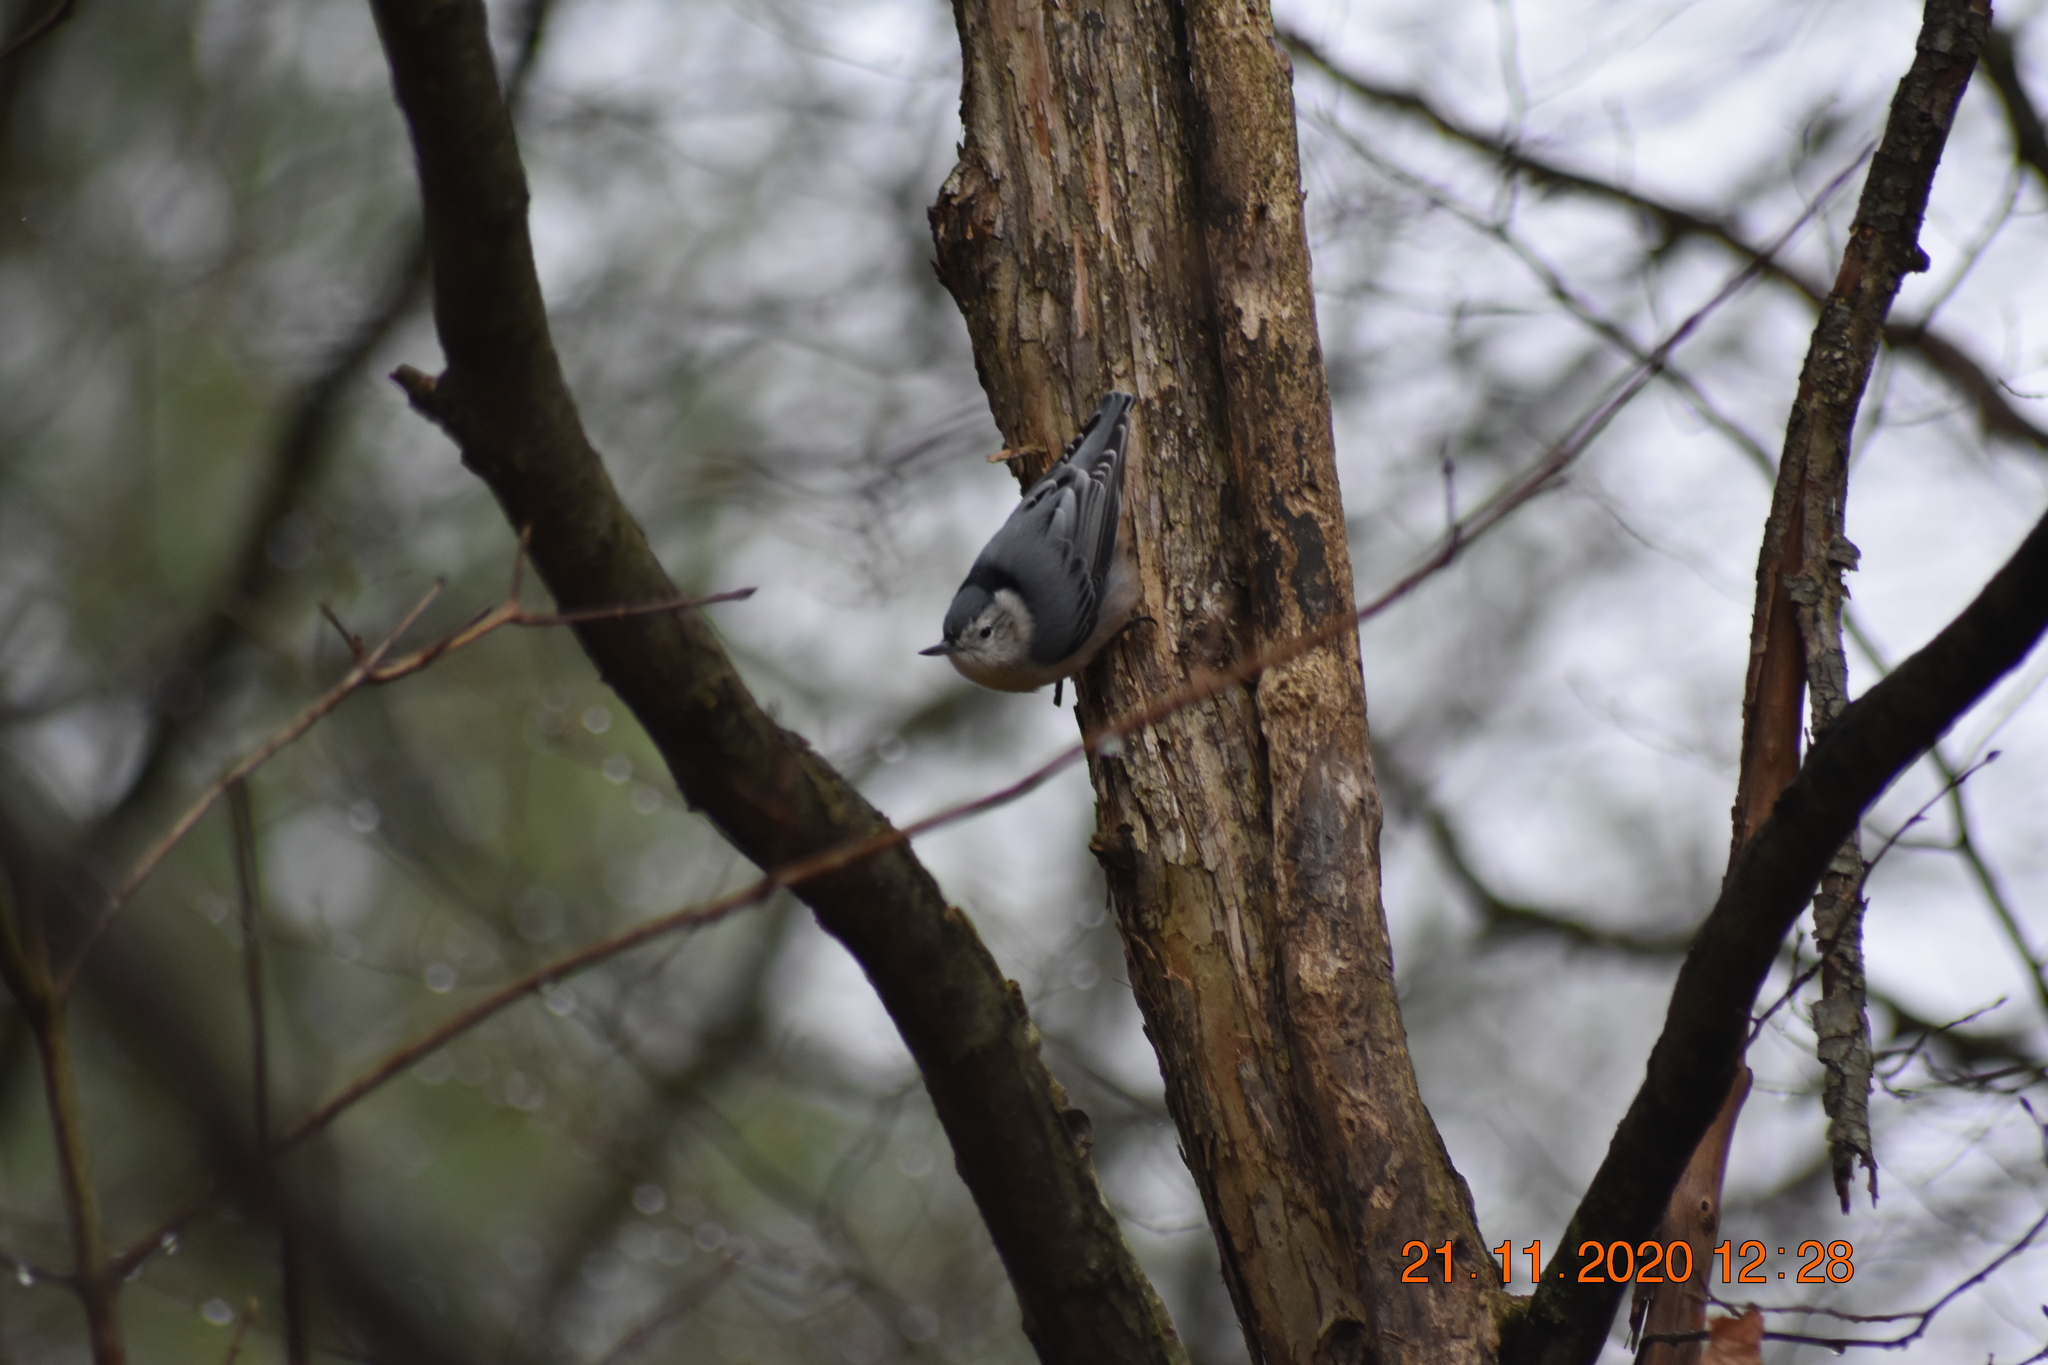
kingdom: Animalia
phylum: Chordata
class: Aves
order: Passeriformes
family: Sittidae
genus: Sitta
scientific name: Sitta carolinensis
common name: White-breasted nuthatch
